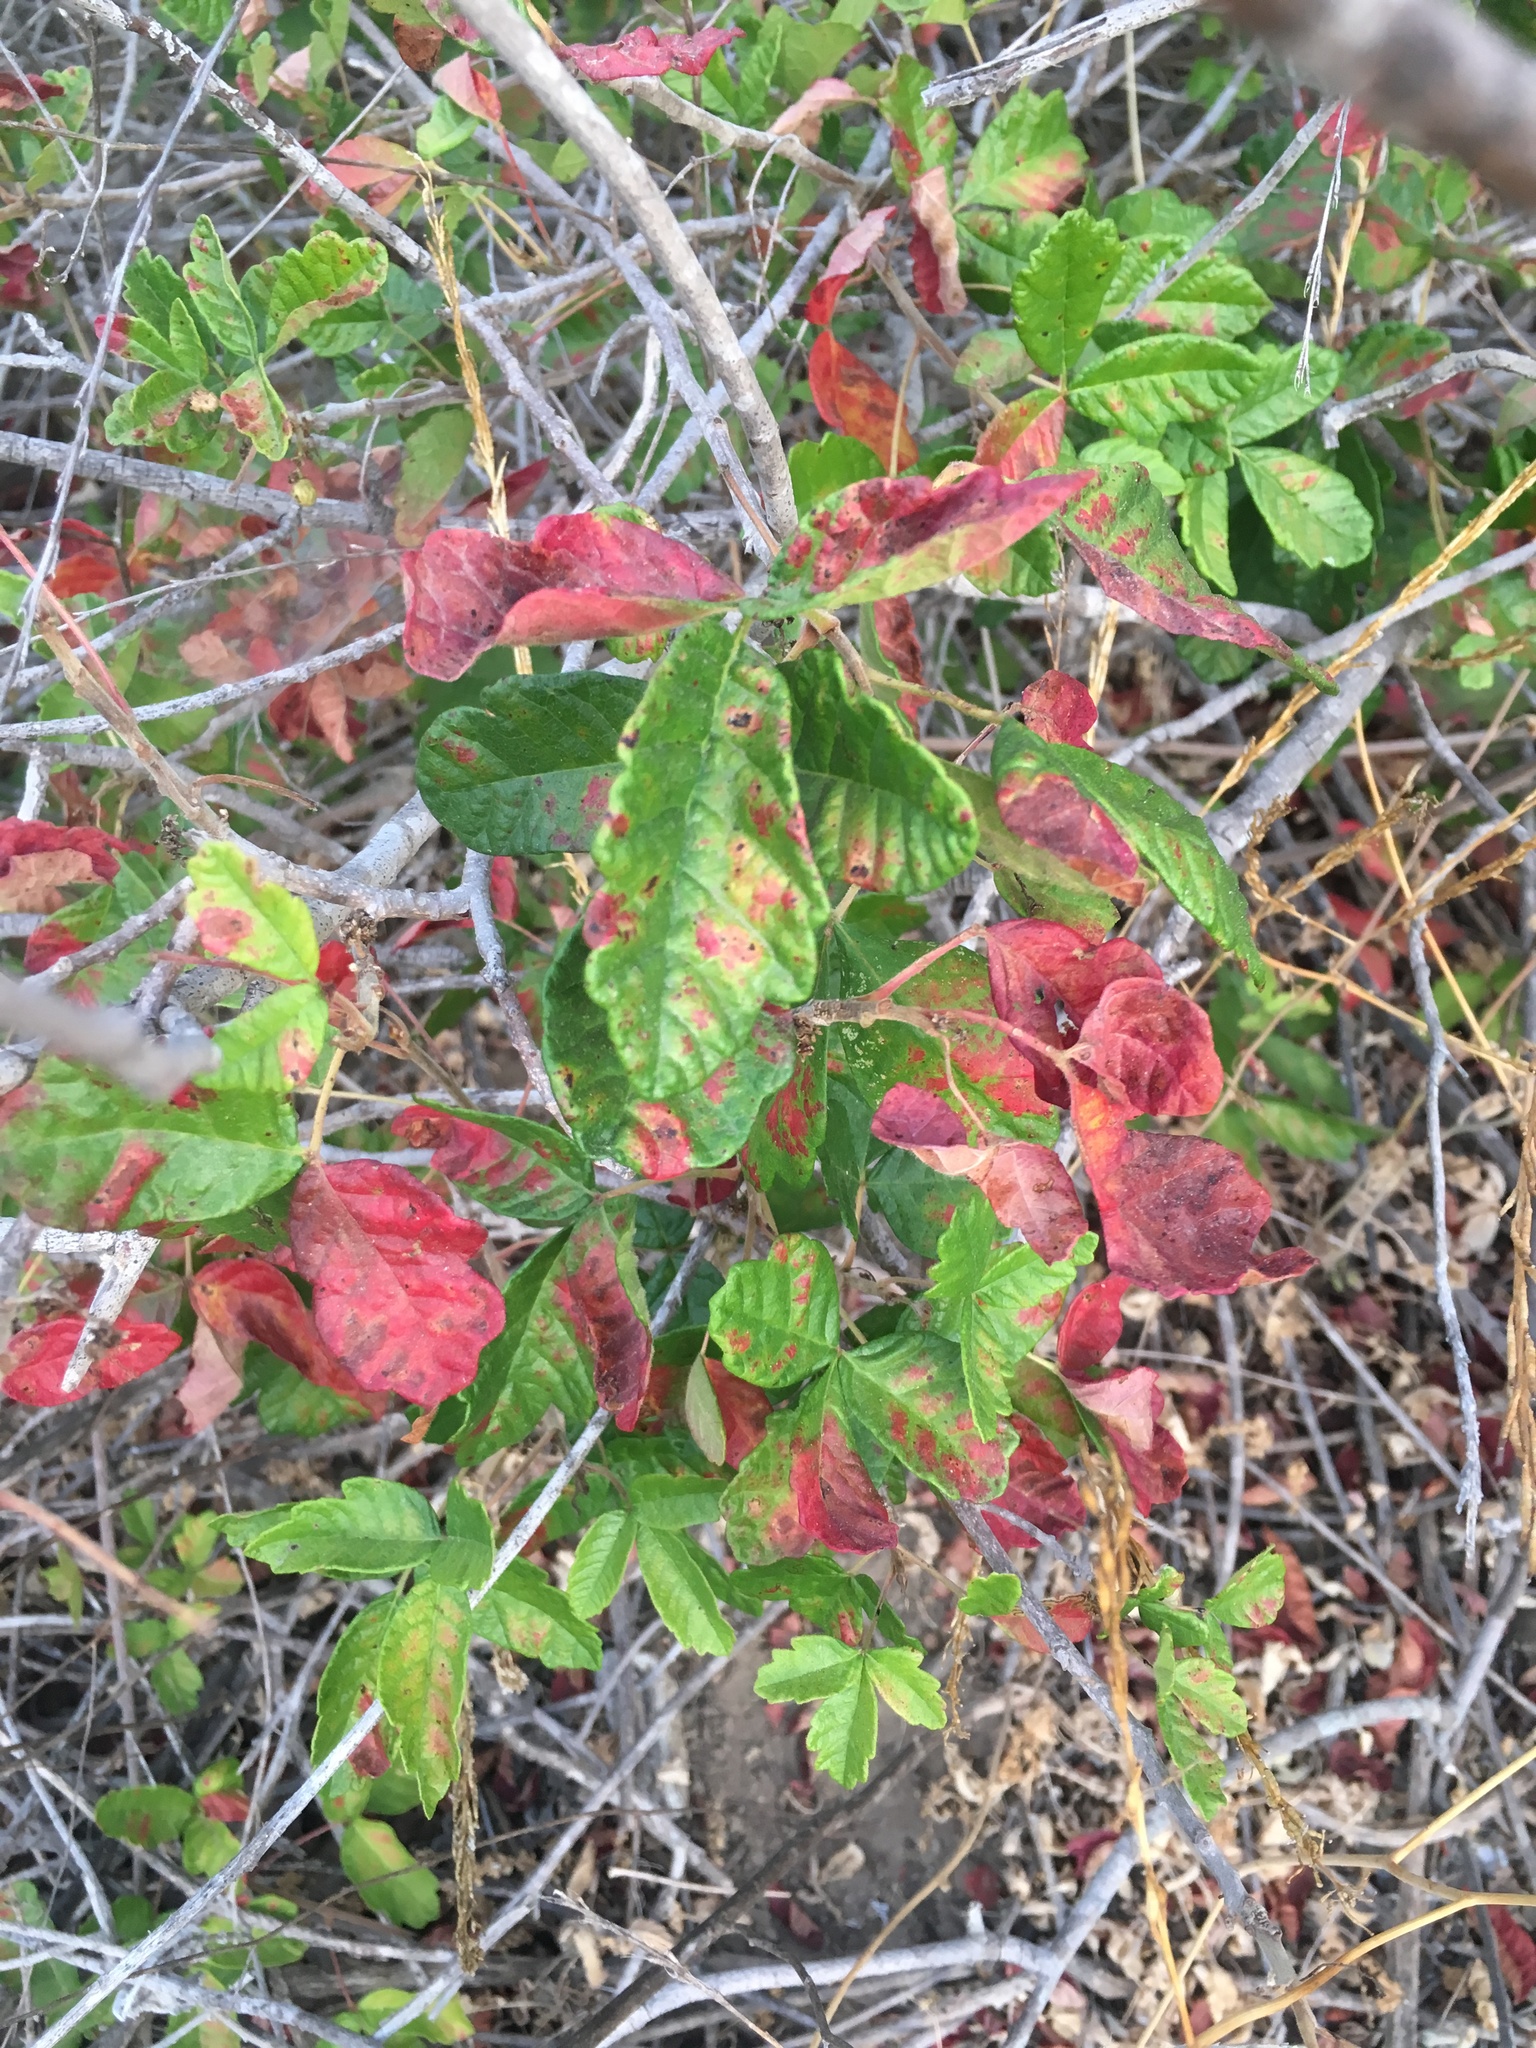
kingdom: Plantae
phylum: Tracheophyta
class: Magnoliopsida
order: Sapindales
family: Anacardiaceae
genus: Toxicodendron
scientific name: Toxicodendron diversilobum
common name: Pacific poison-oak
